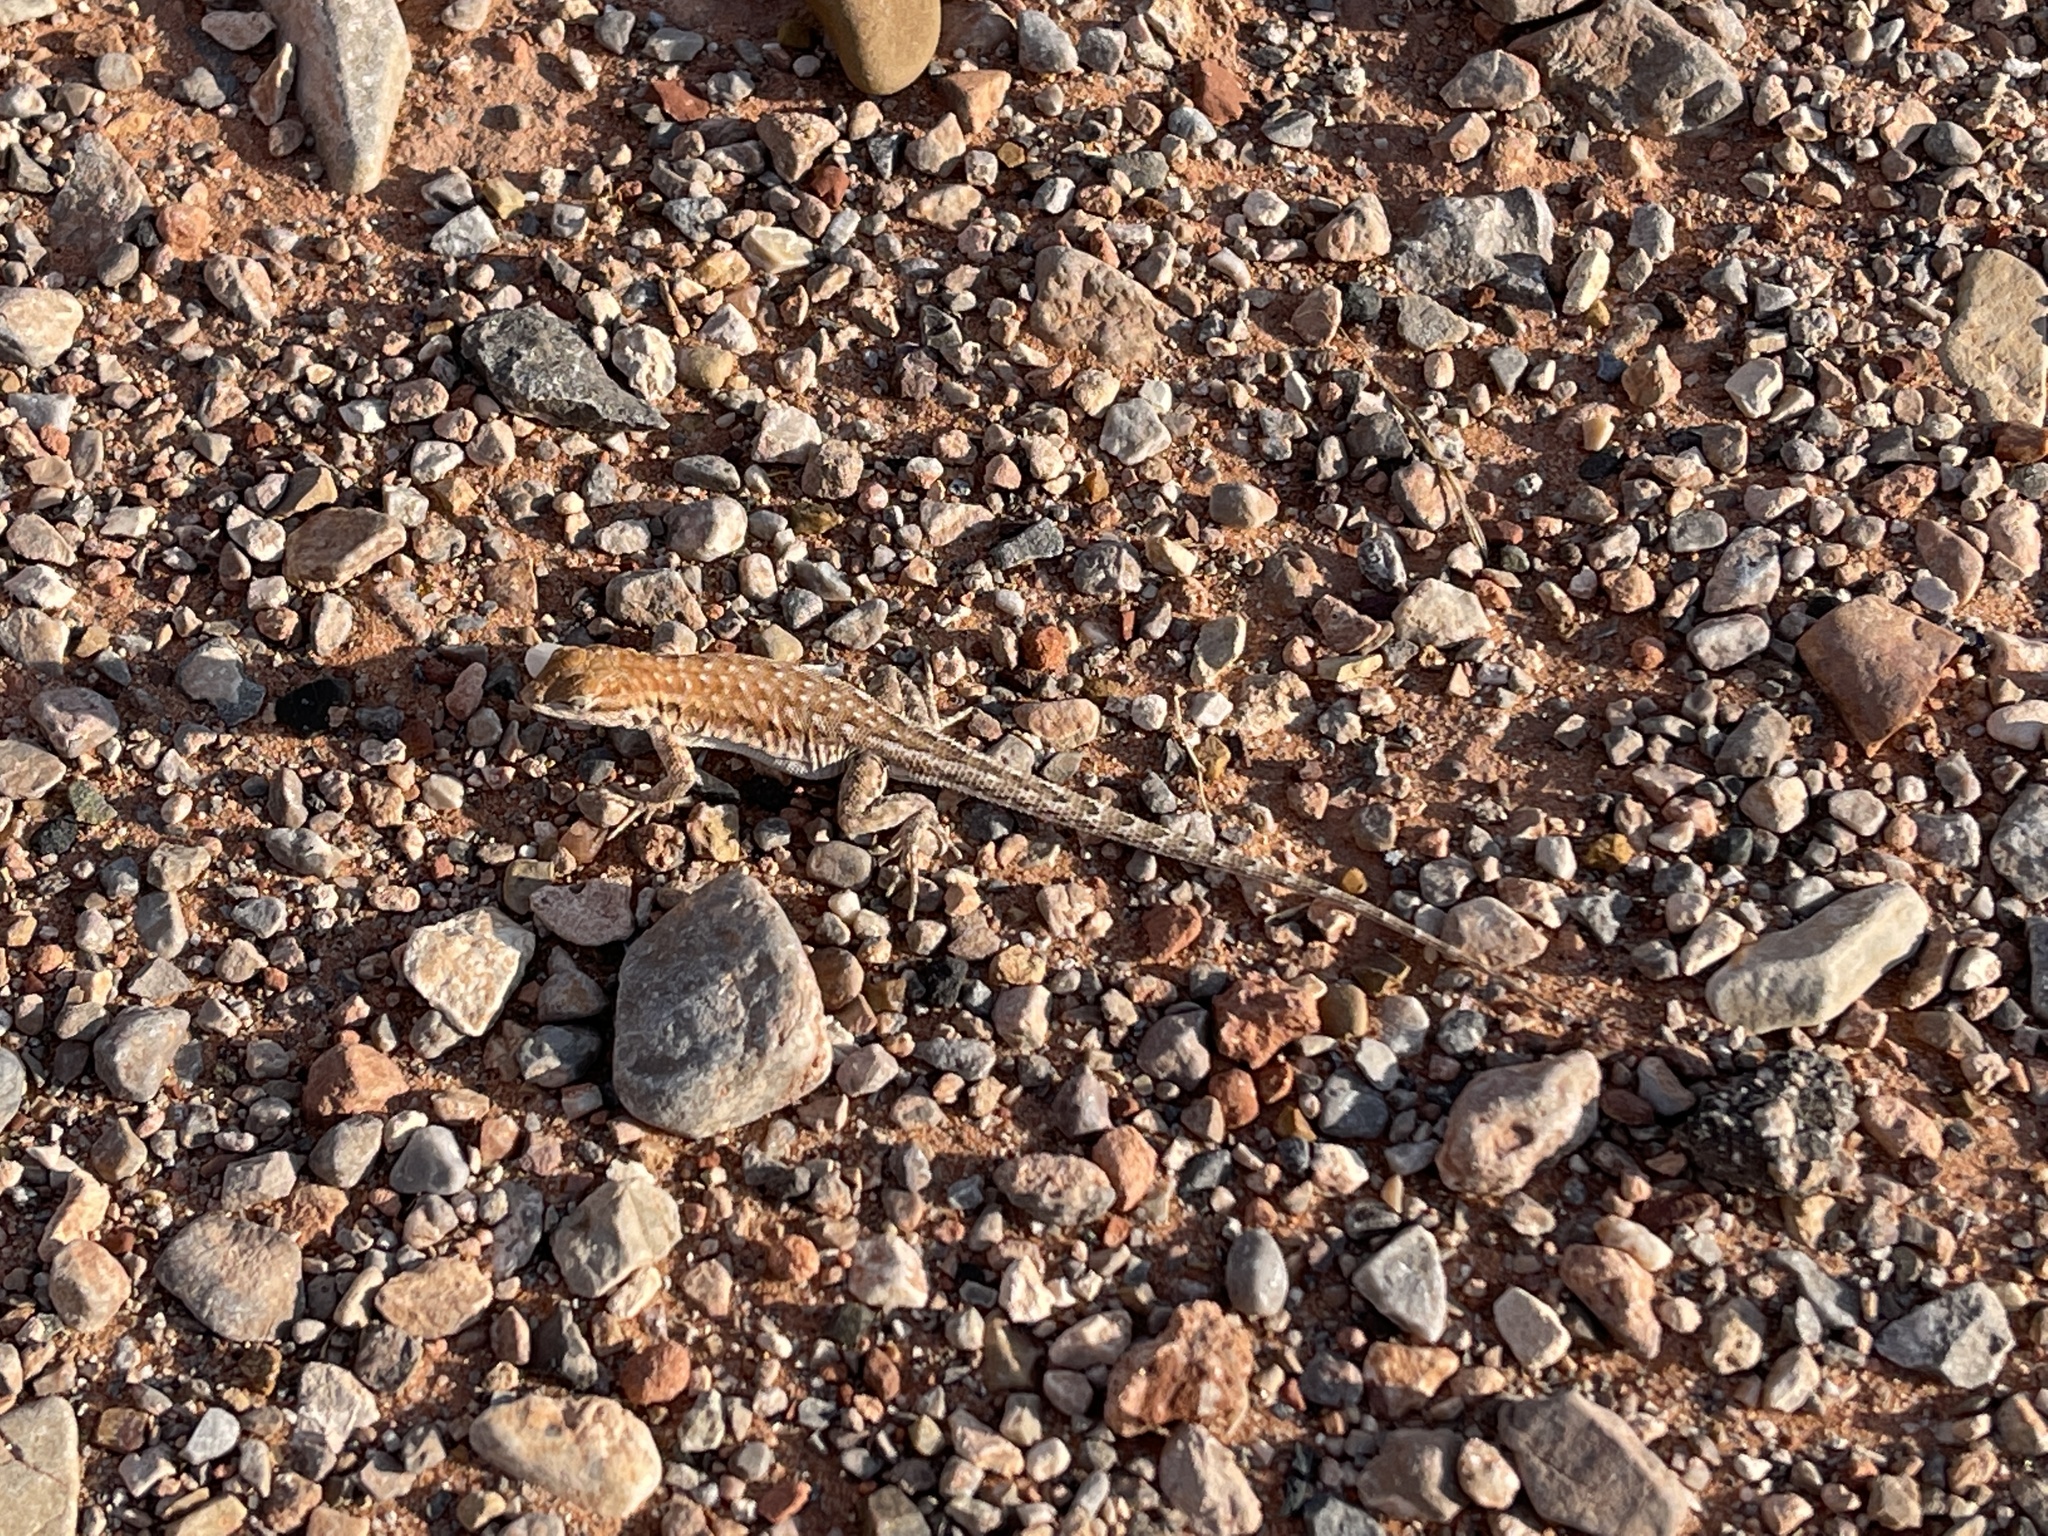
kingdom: Animalia
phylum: Chordata
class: Squamata
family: Phrynosomatidae
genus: Uta
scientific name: Uta stansburiana
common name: Side-blotched lizard
